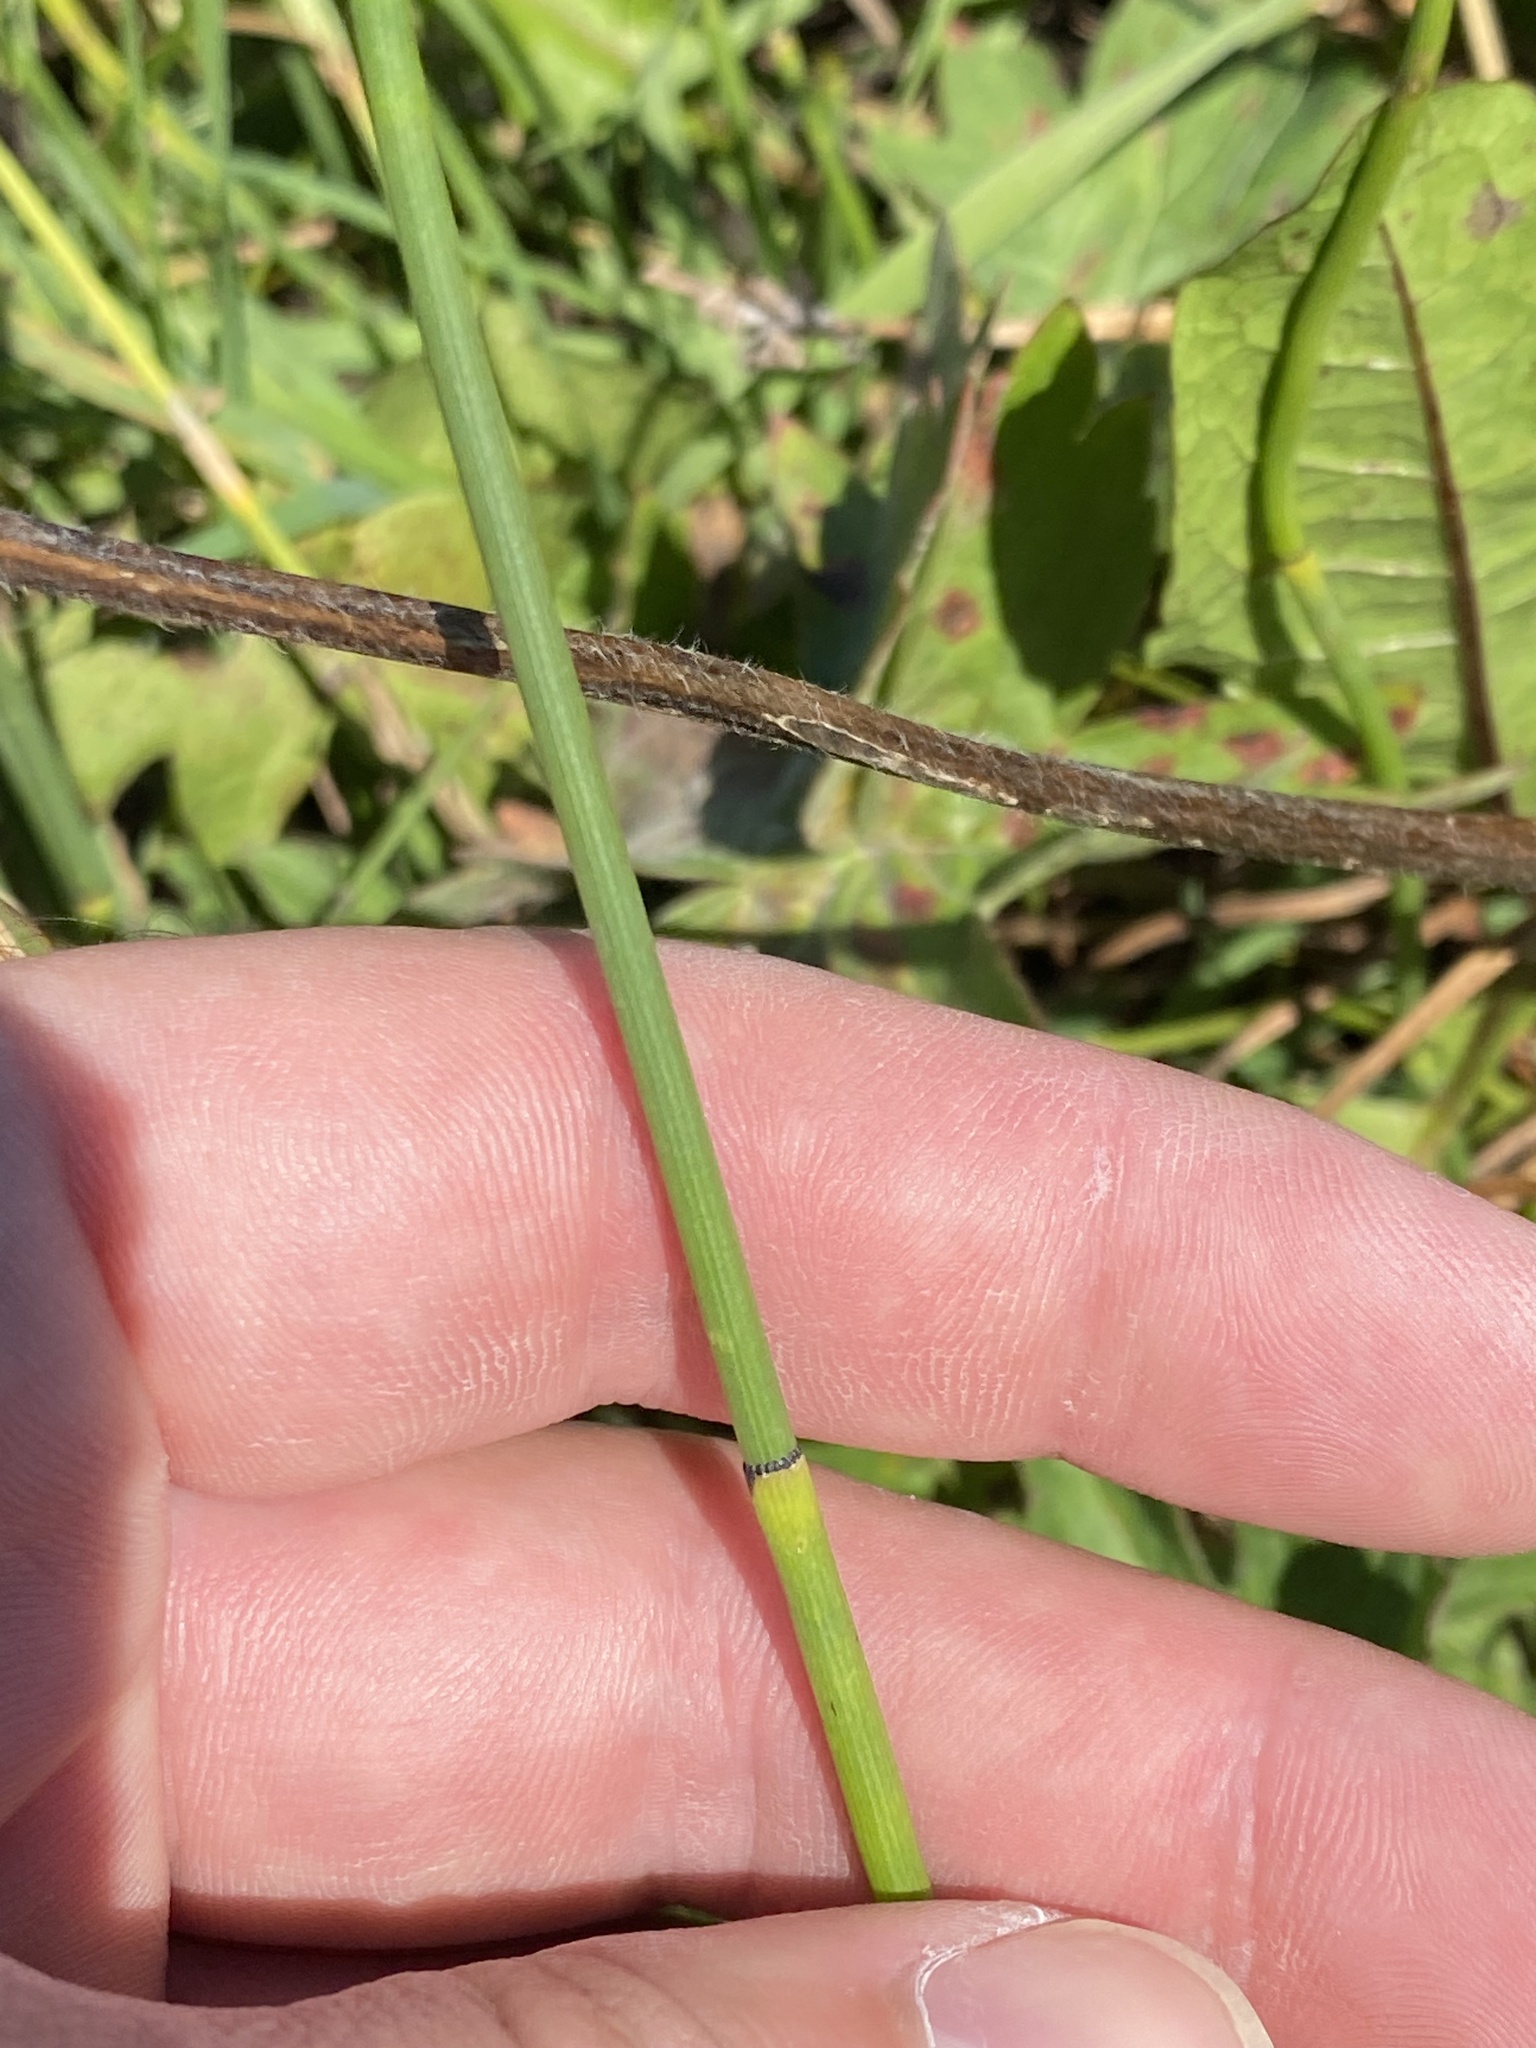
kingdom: Plantae
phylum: Tracheophyta
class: Polypodiopsida
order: Equisetales
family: Equisetaceae
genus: Equisetum
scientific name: Equisetum laevigatum
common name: Smooth scouring-rush
